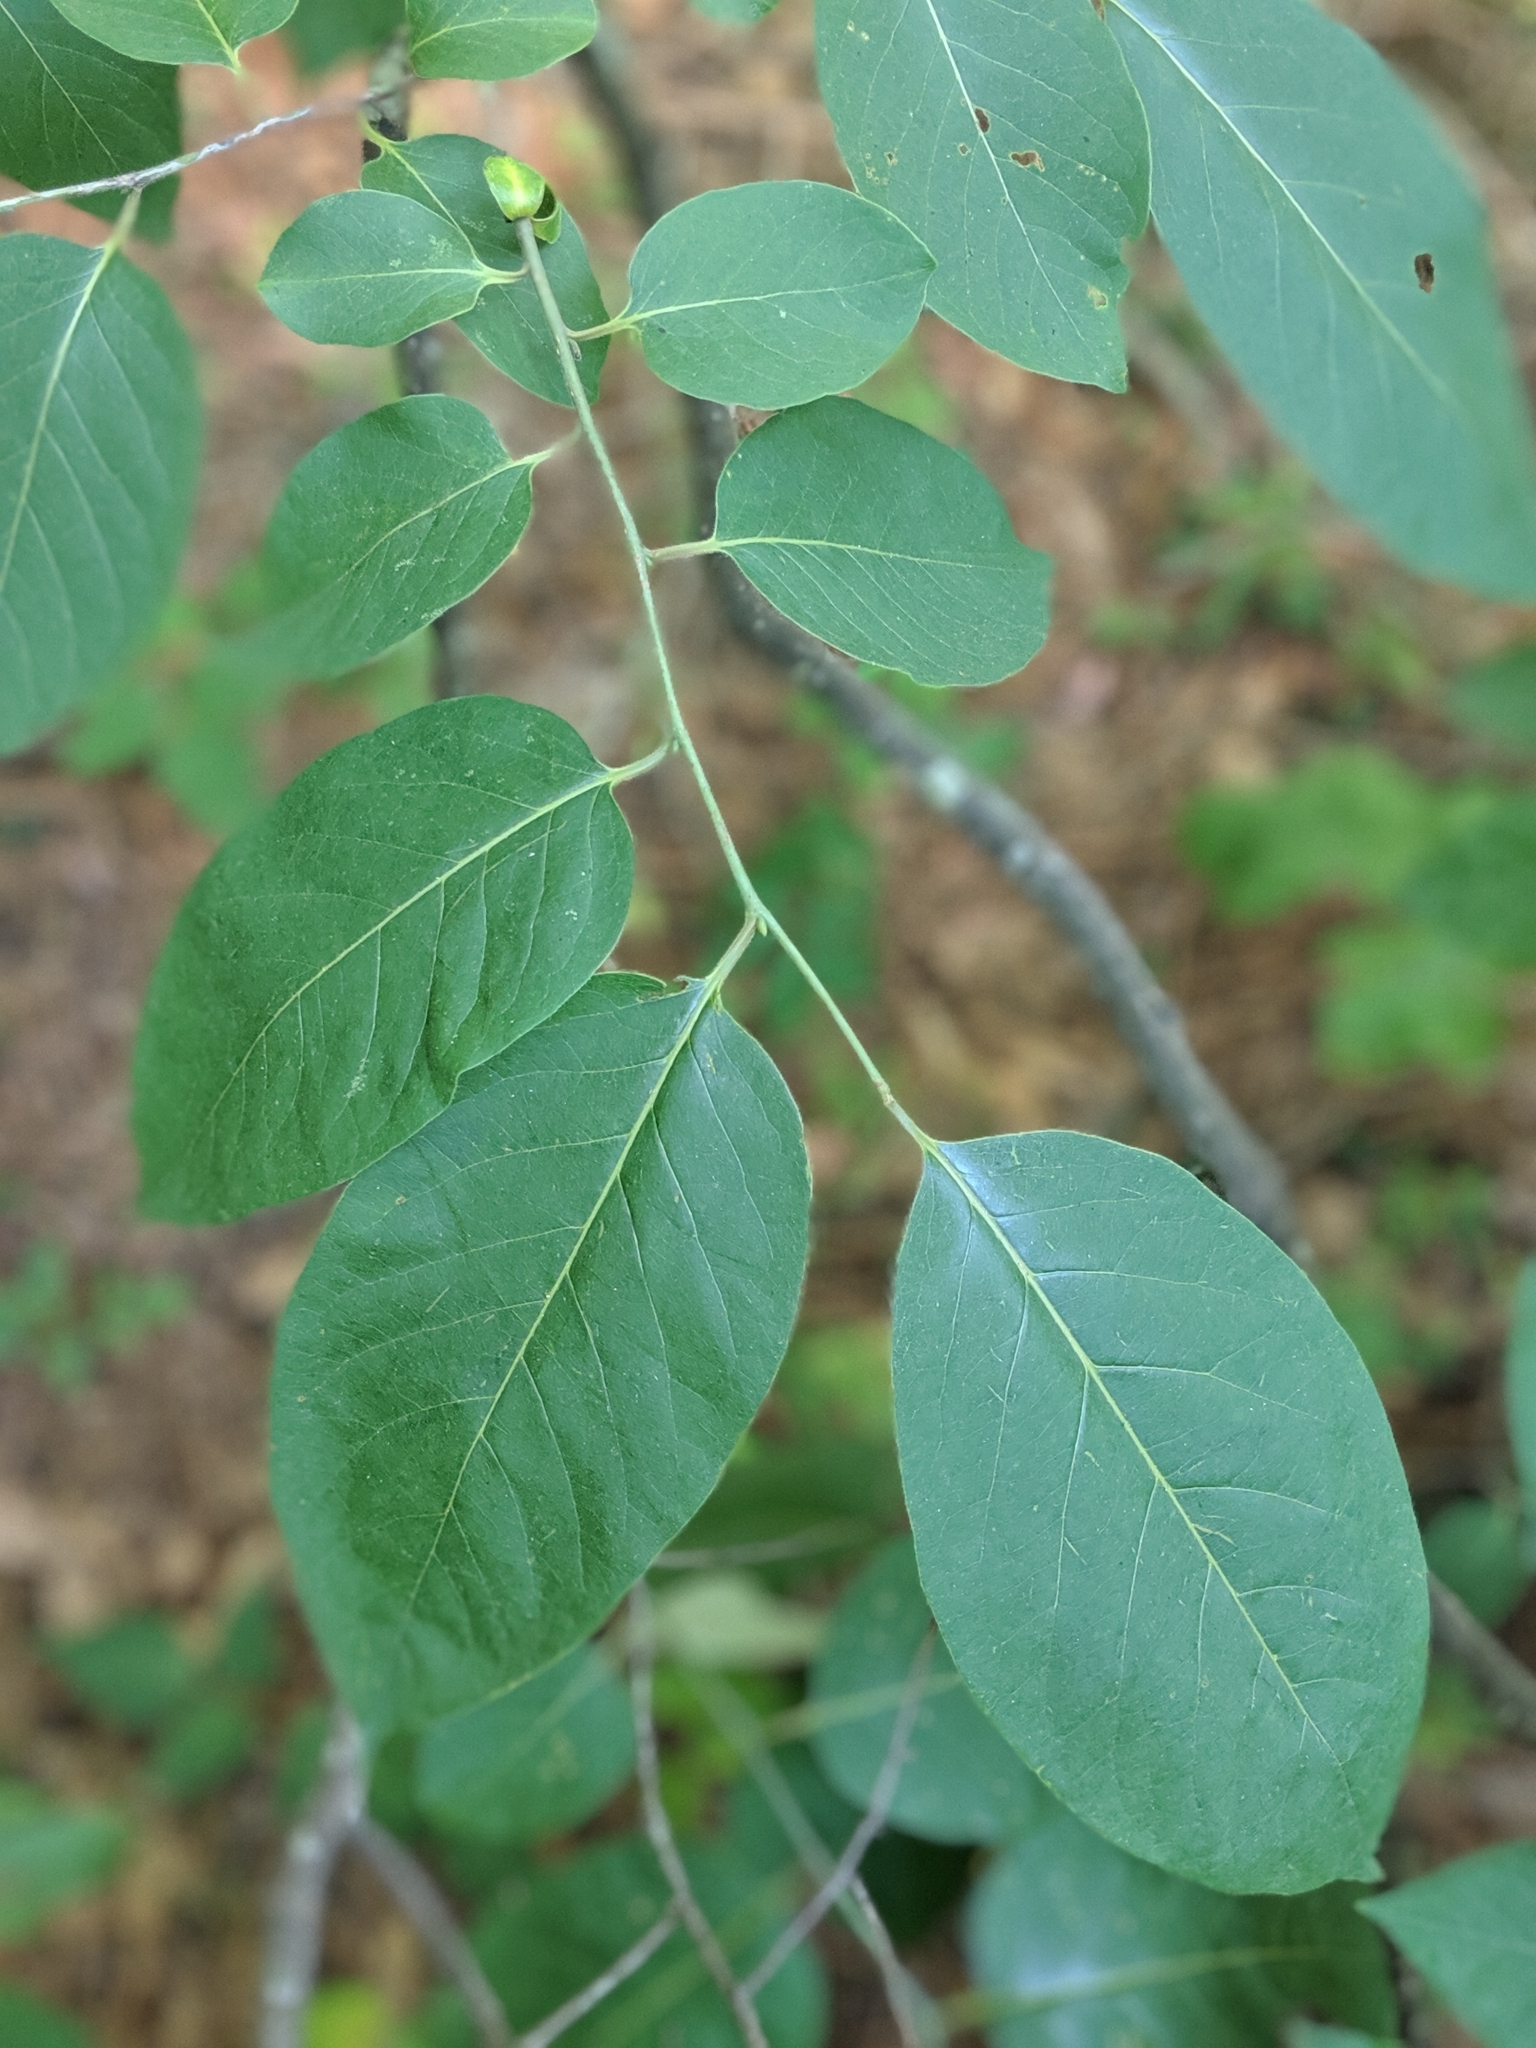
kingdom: Plantae
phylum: Tracheophyta
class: Magnoliopsida
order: Ericales
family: Ebenaceae
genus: Diospyros
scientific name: Diospyros virginiana
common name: Persimmon
